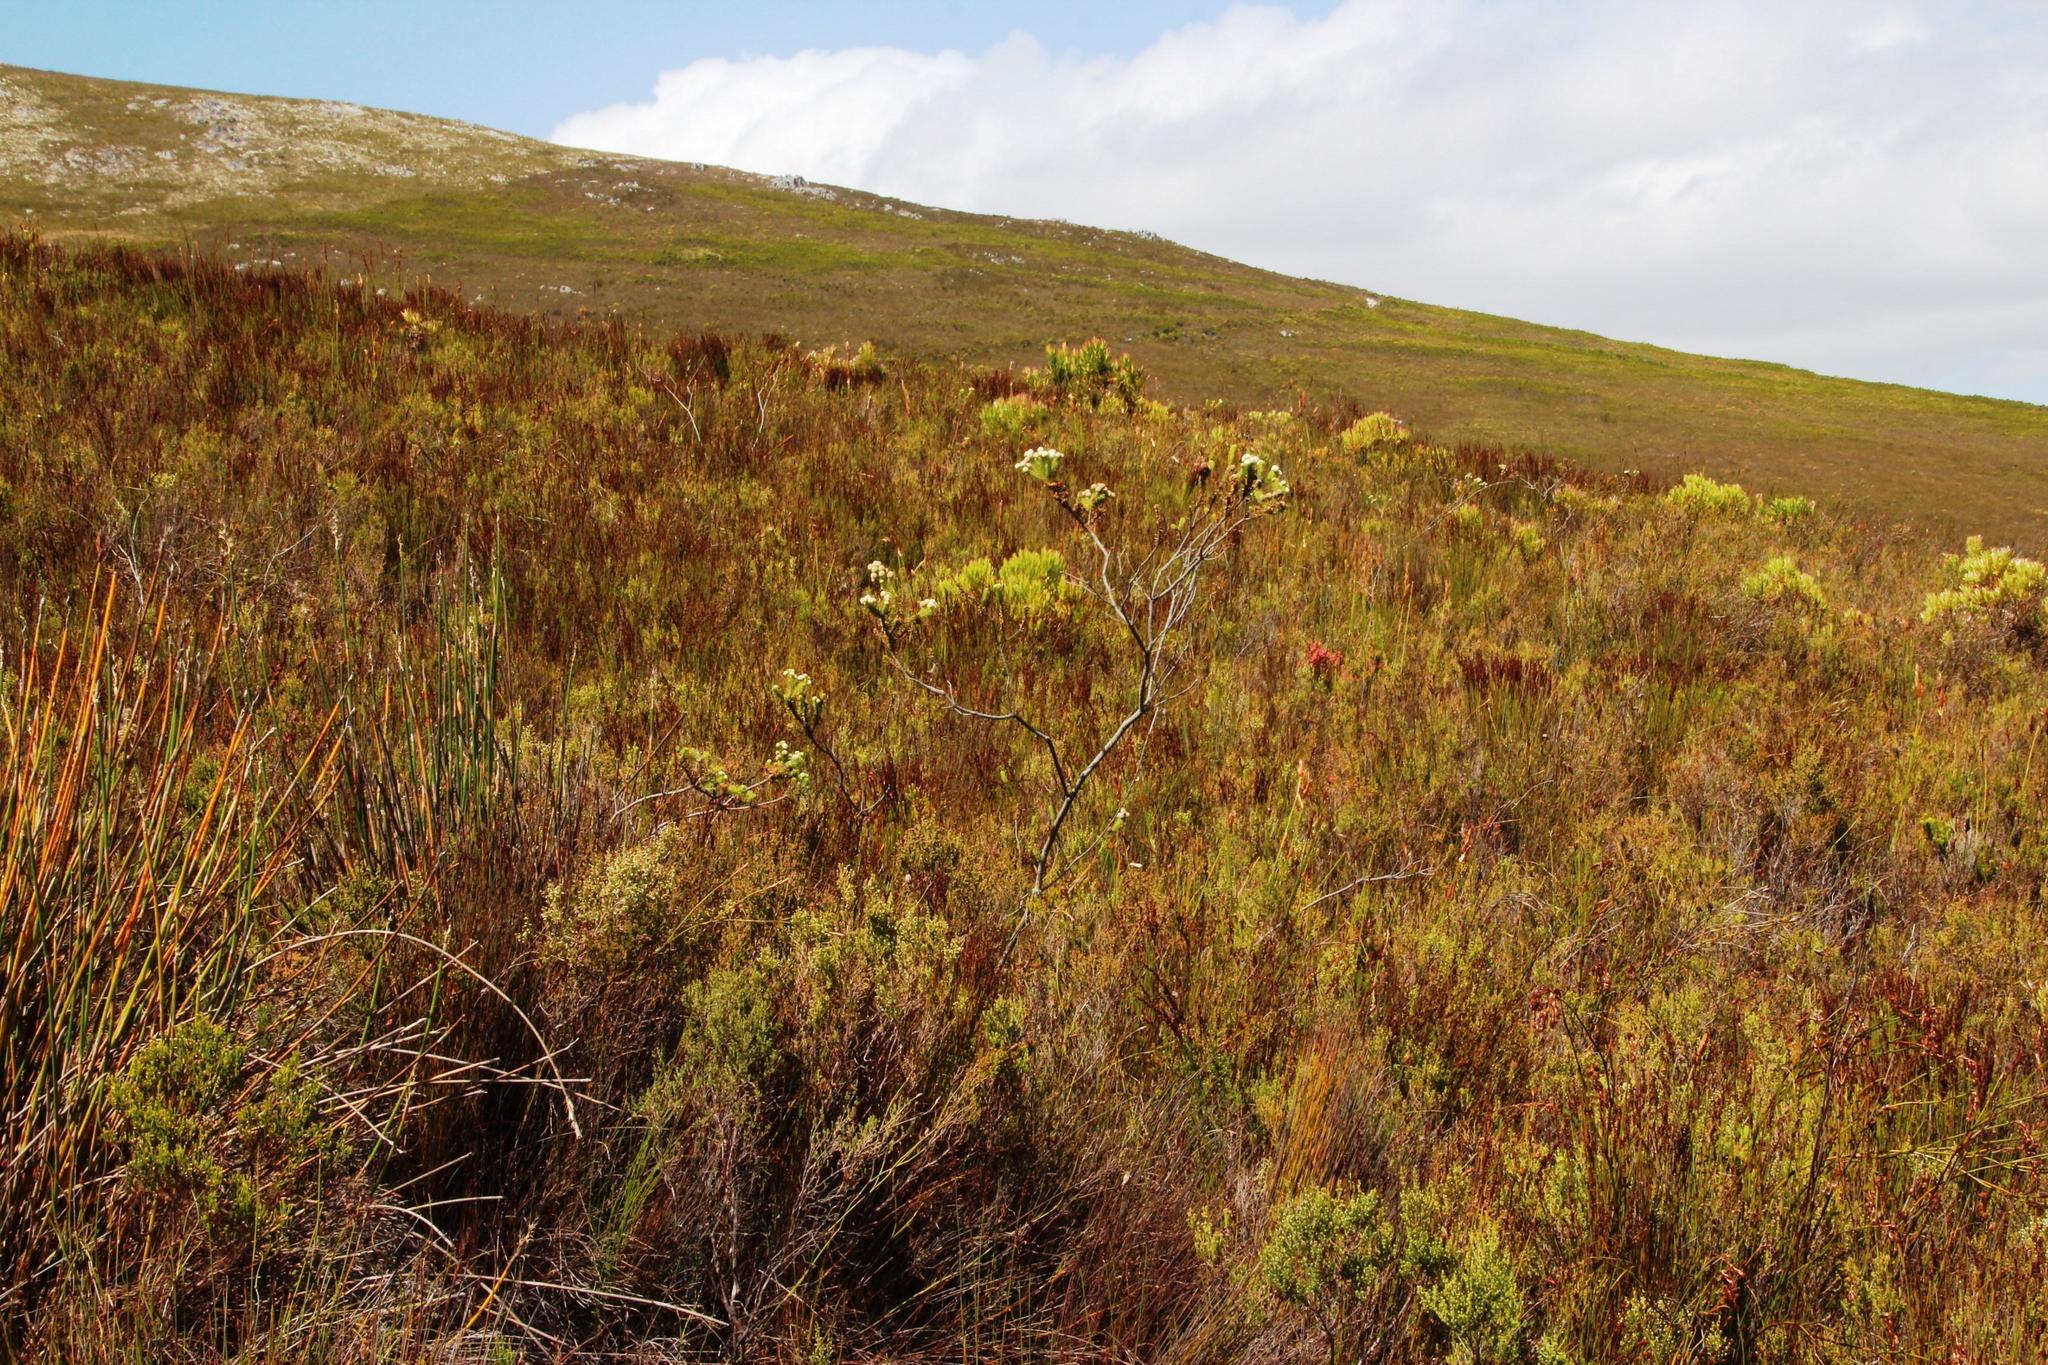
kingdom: Plantae
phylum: Tracheophyta
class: Magnoliopsida
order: Bruniales
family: Bruniaceae
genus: Berzelia
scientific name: Berzelia rubra
